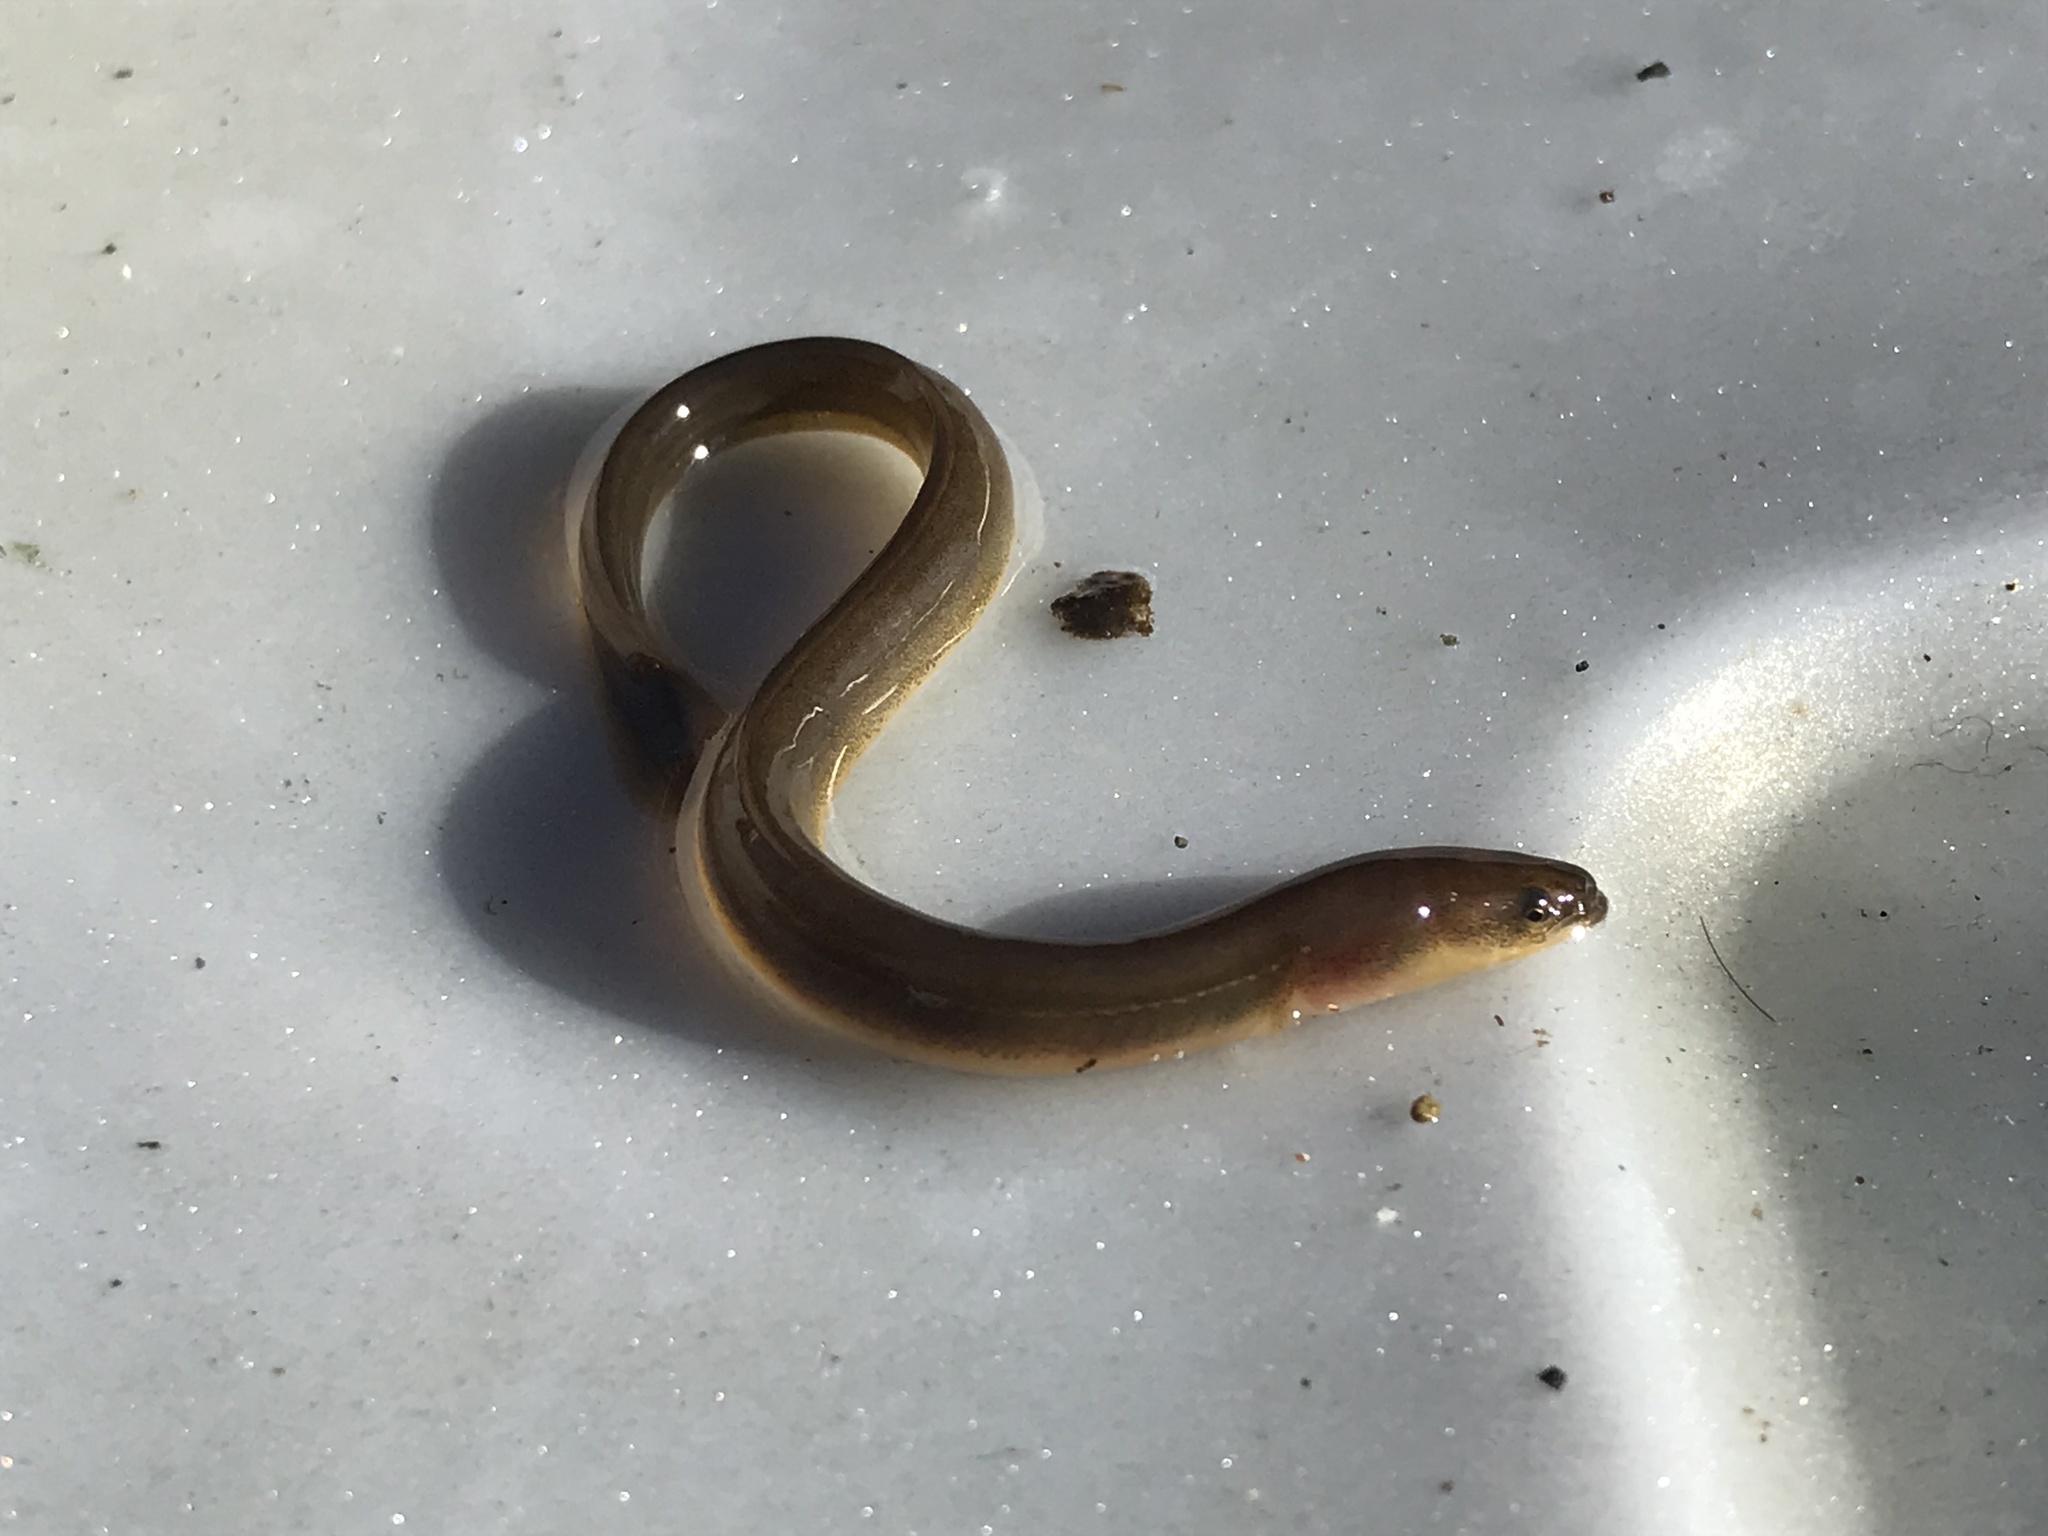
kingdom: Animalia
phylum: Chordata
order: Anguilliformes
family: Anguillidae
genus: Anguilla
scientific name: Anguilla rostrata
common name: American eel
